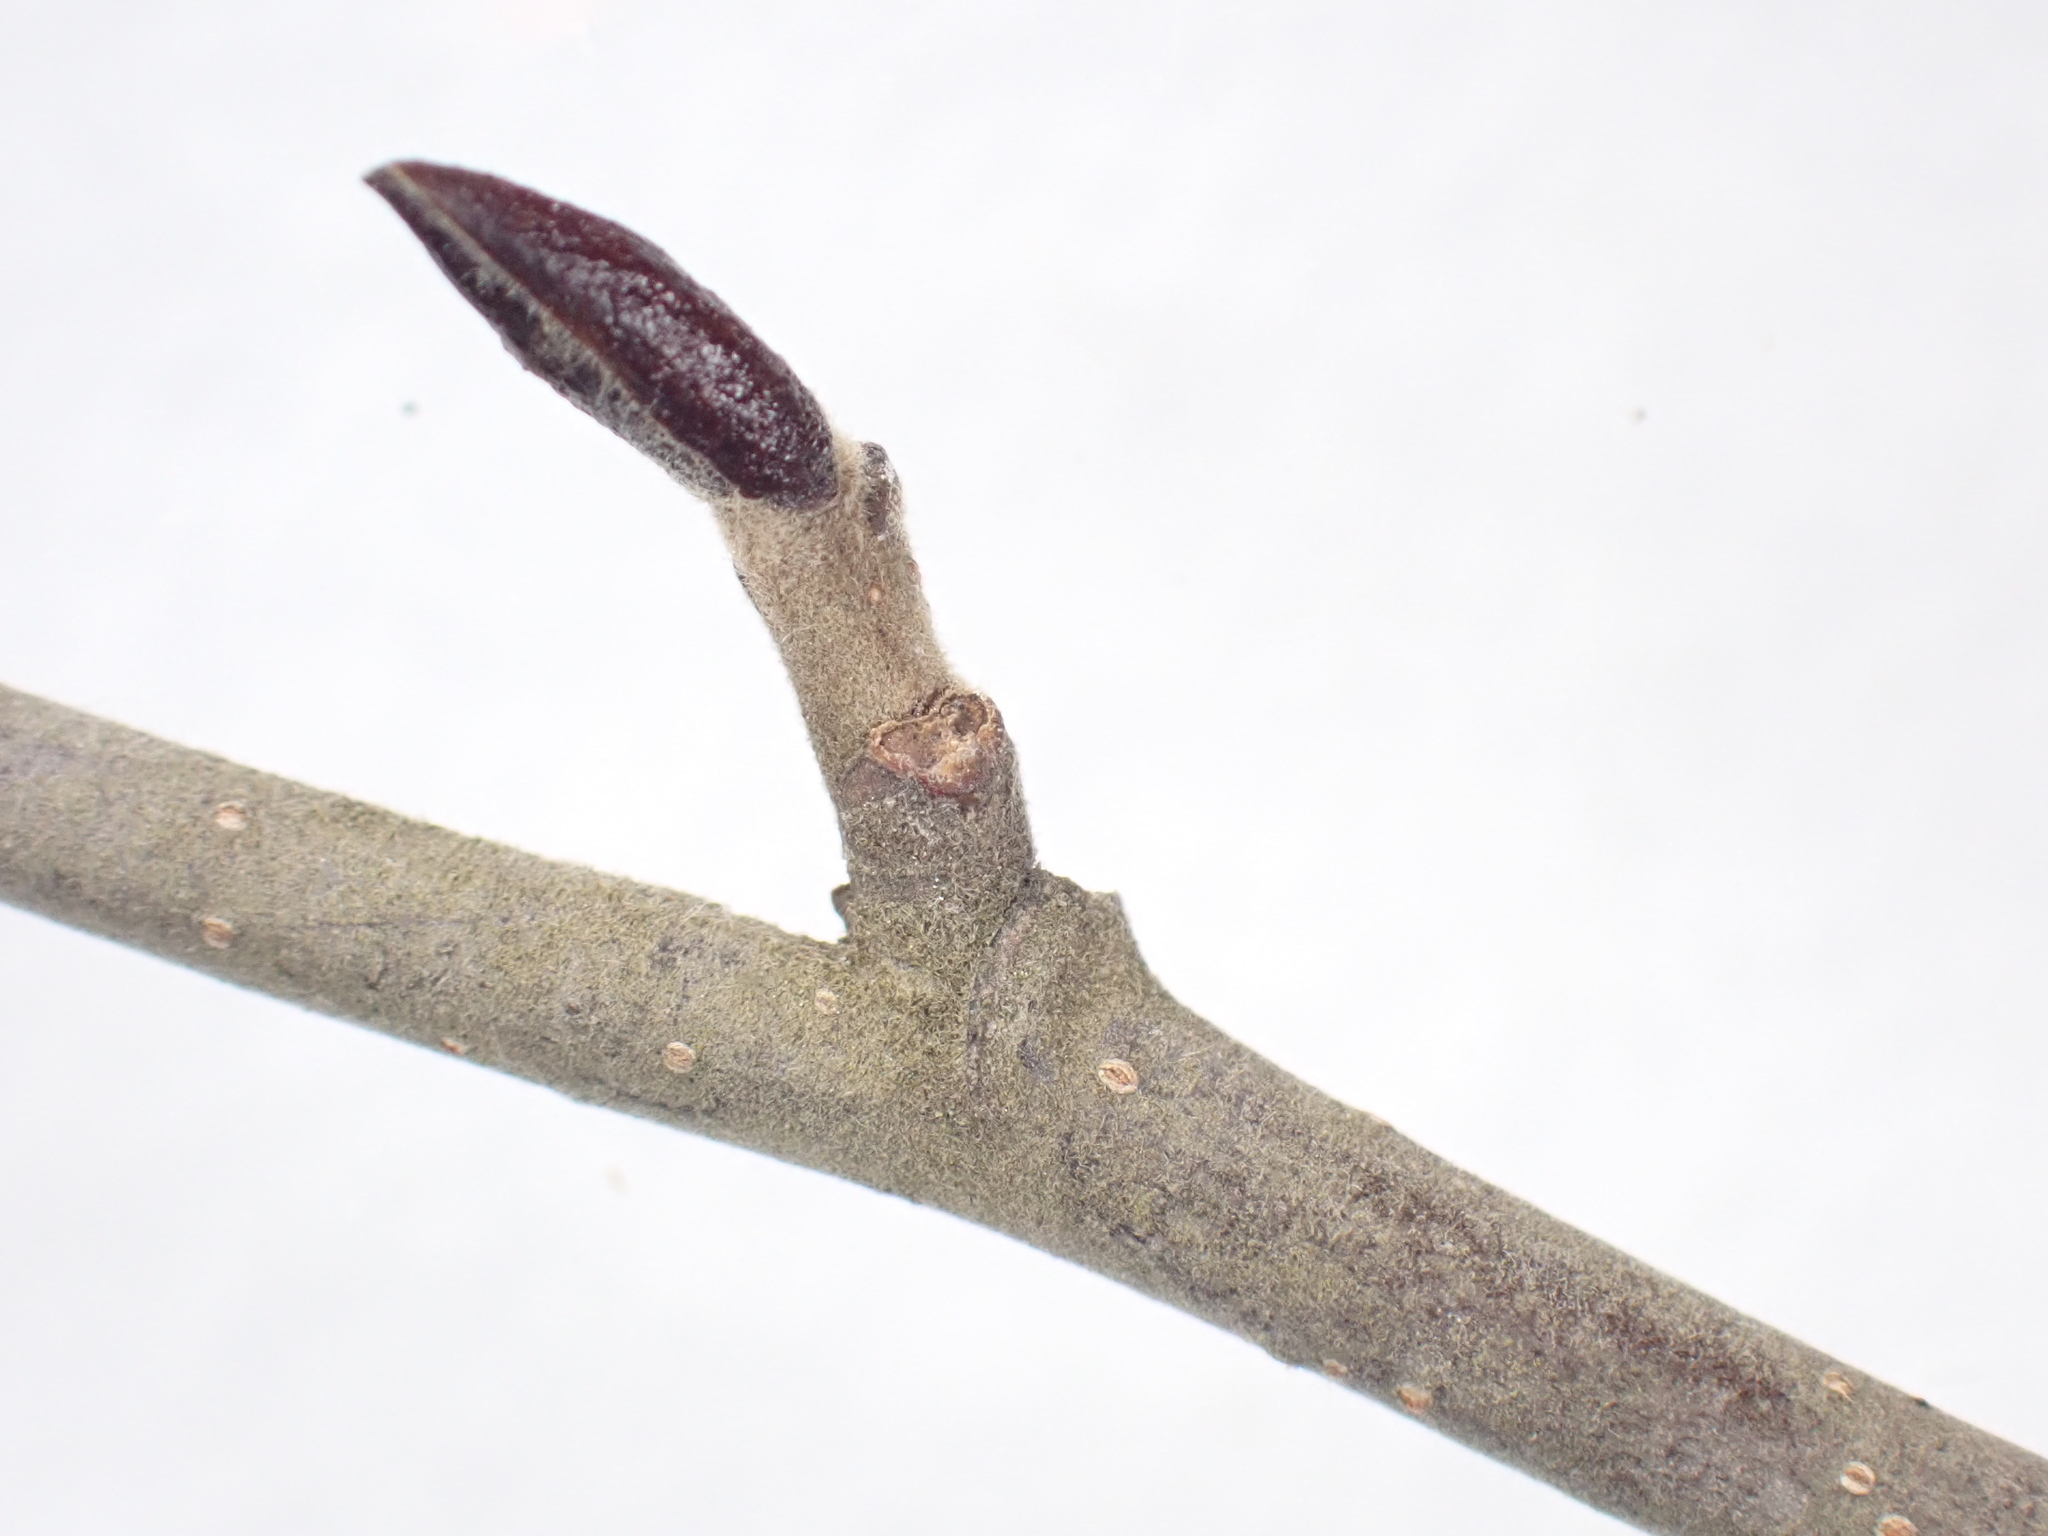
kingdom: Plantae
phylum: Tracheophyta
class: Magnoliopsida
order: Fagales
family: Betulaceae
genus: Alnus
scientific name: Alnus alnobetula
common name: Green alder
